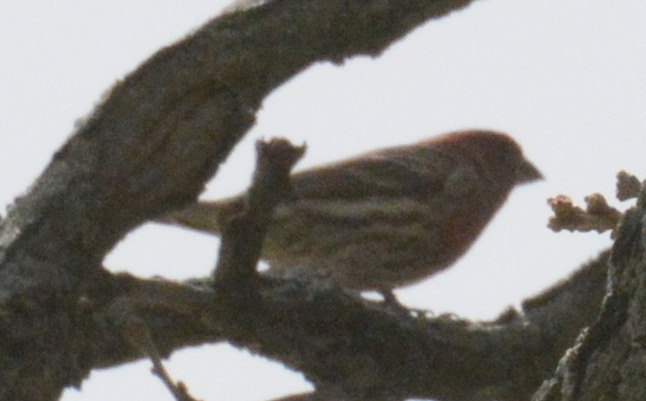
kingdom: Animalia
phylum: Chordata
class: Aves
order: Passeriformes
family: Fringillidae
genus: Haemorhous
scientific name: Haemorhous mexicanus
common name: House finch
